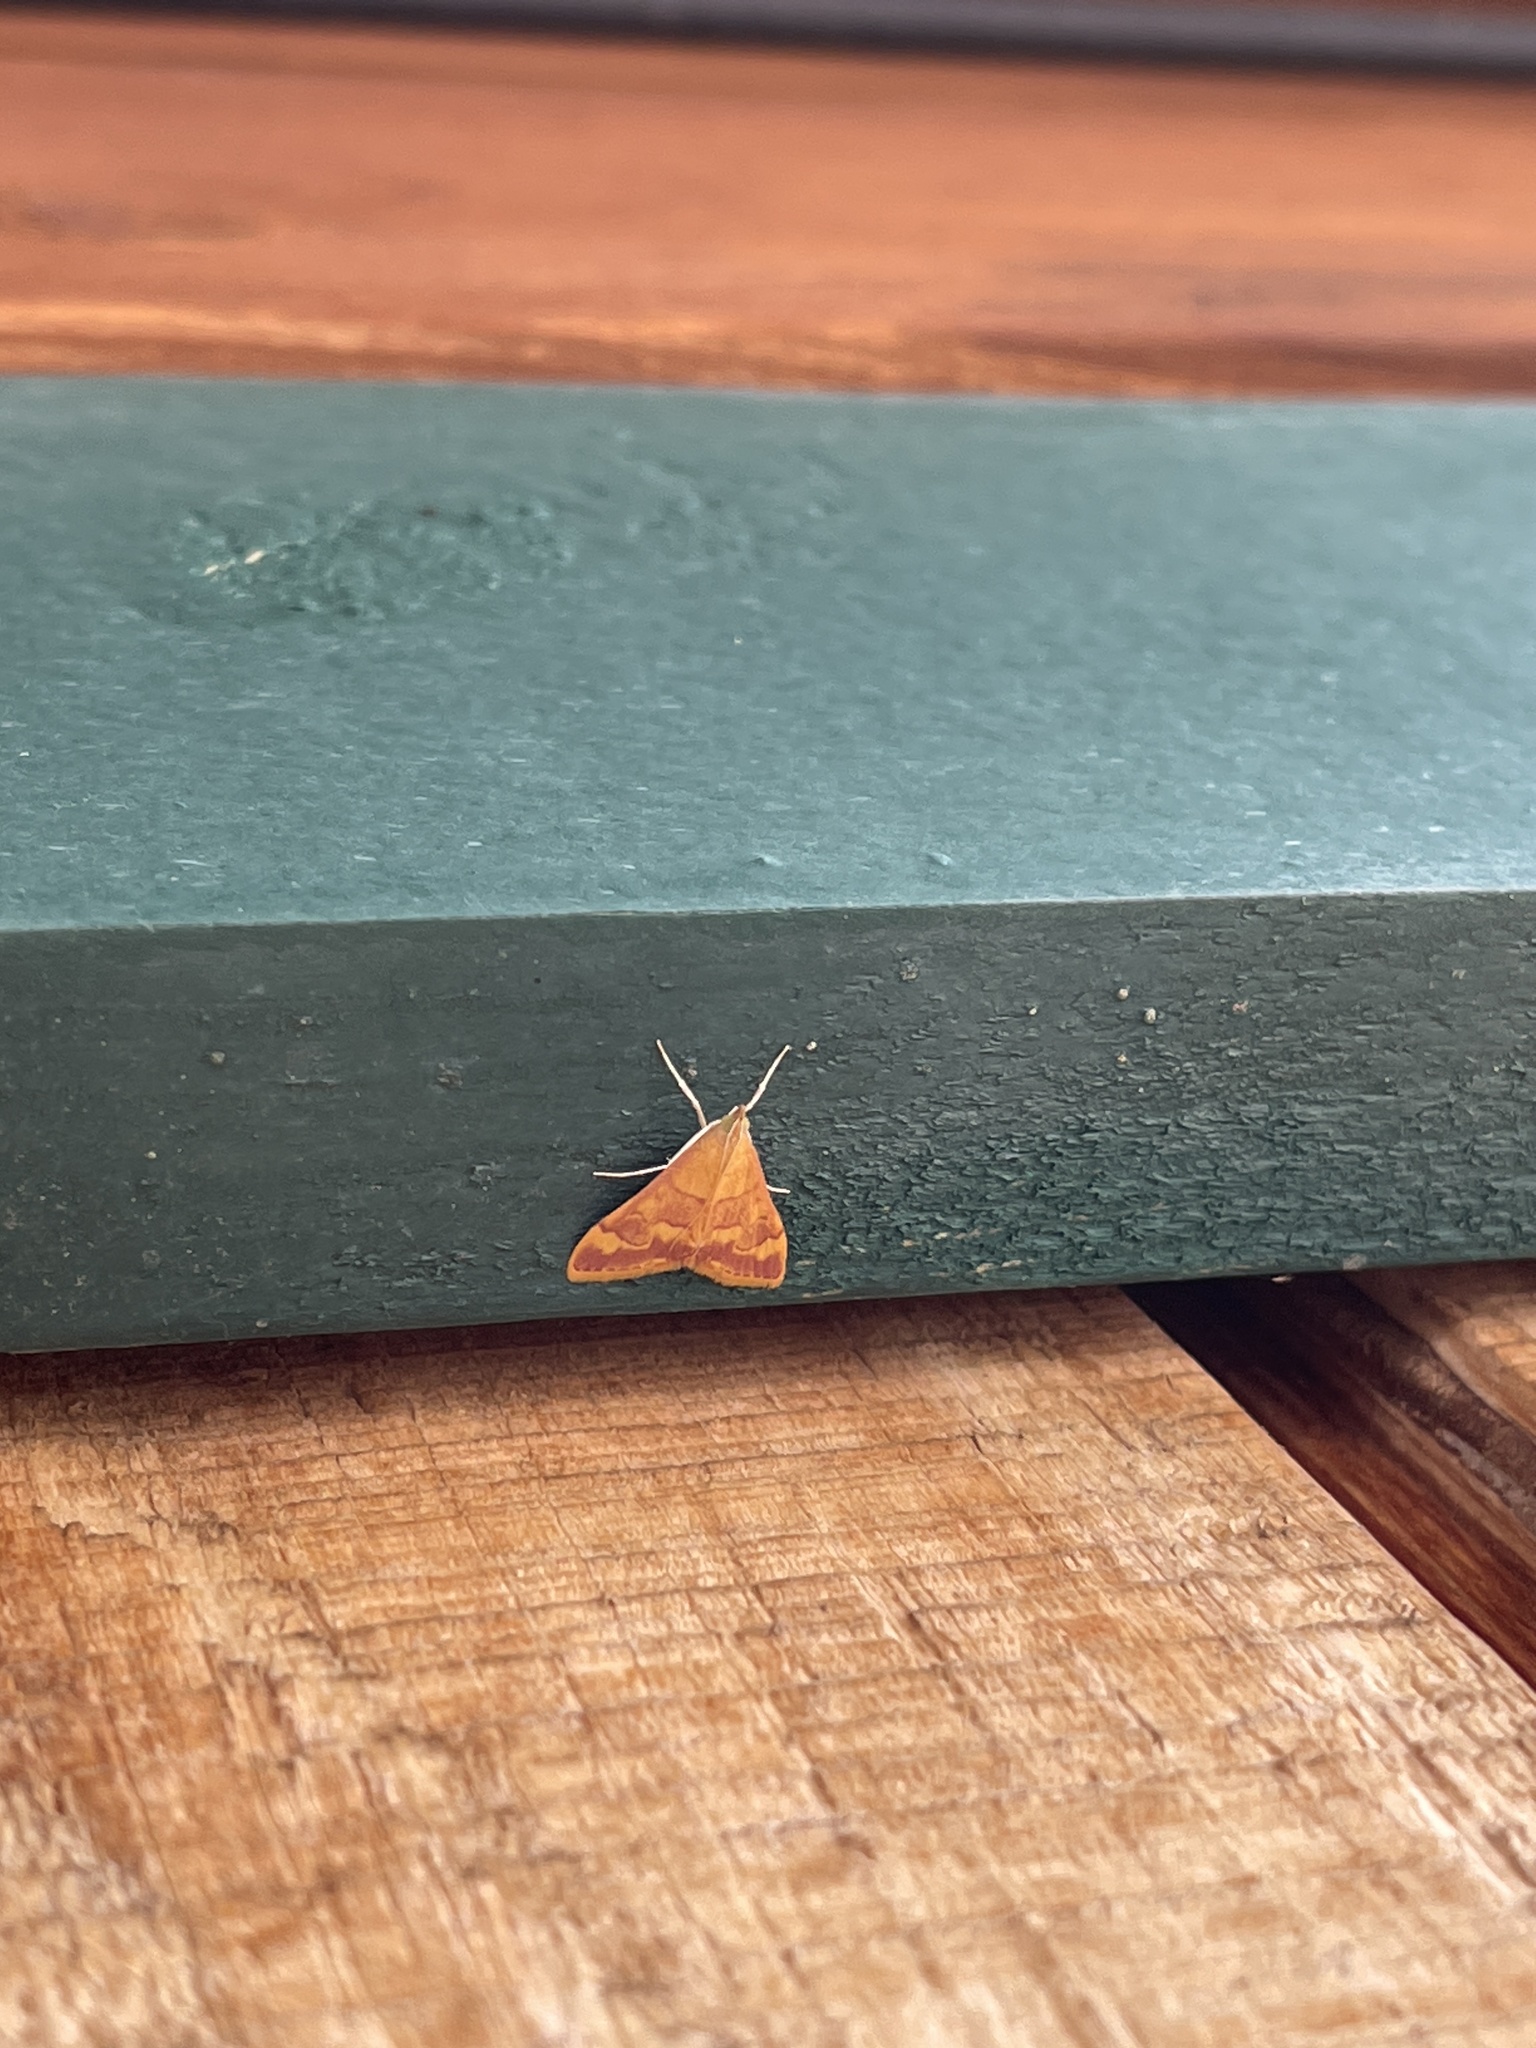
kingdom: Animalia
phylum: Arthropoda
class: Insecta
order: Lepidoptera
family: Crambidae
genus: Pyrausta
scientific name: Pyrausta pseudonythesalis
